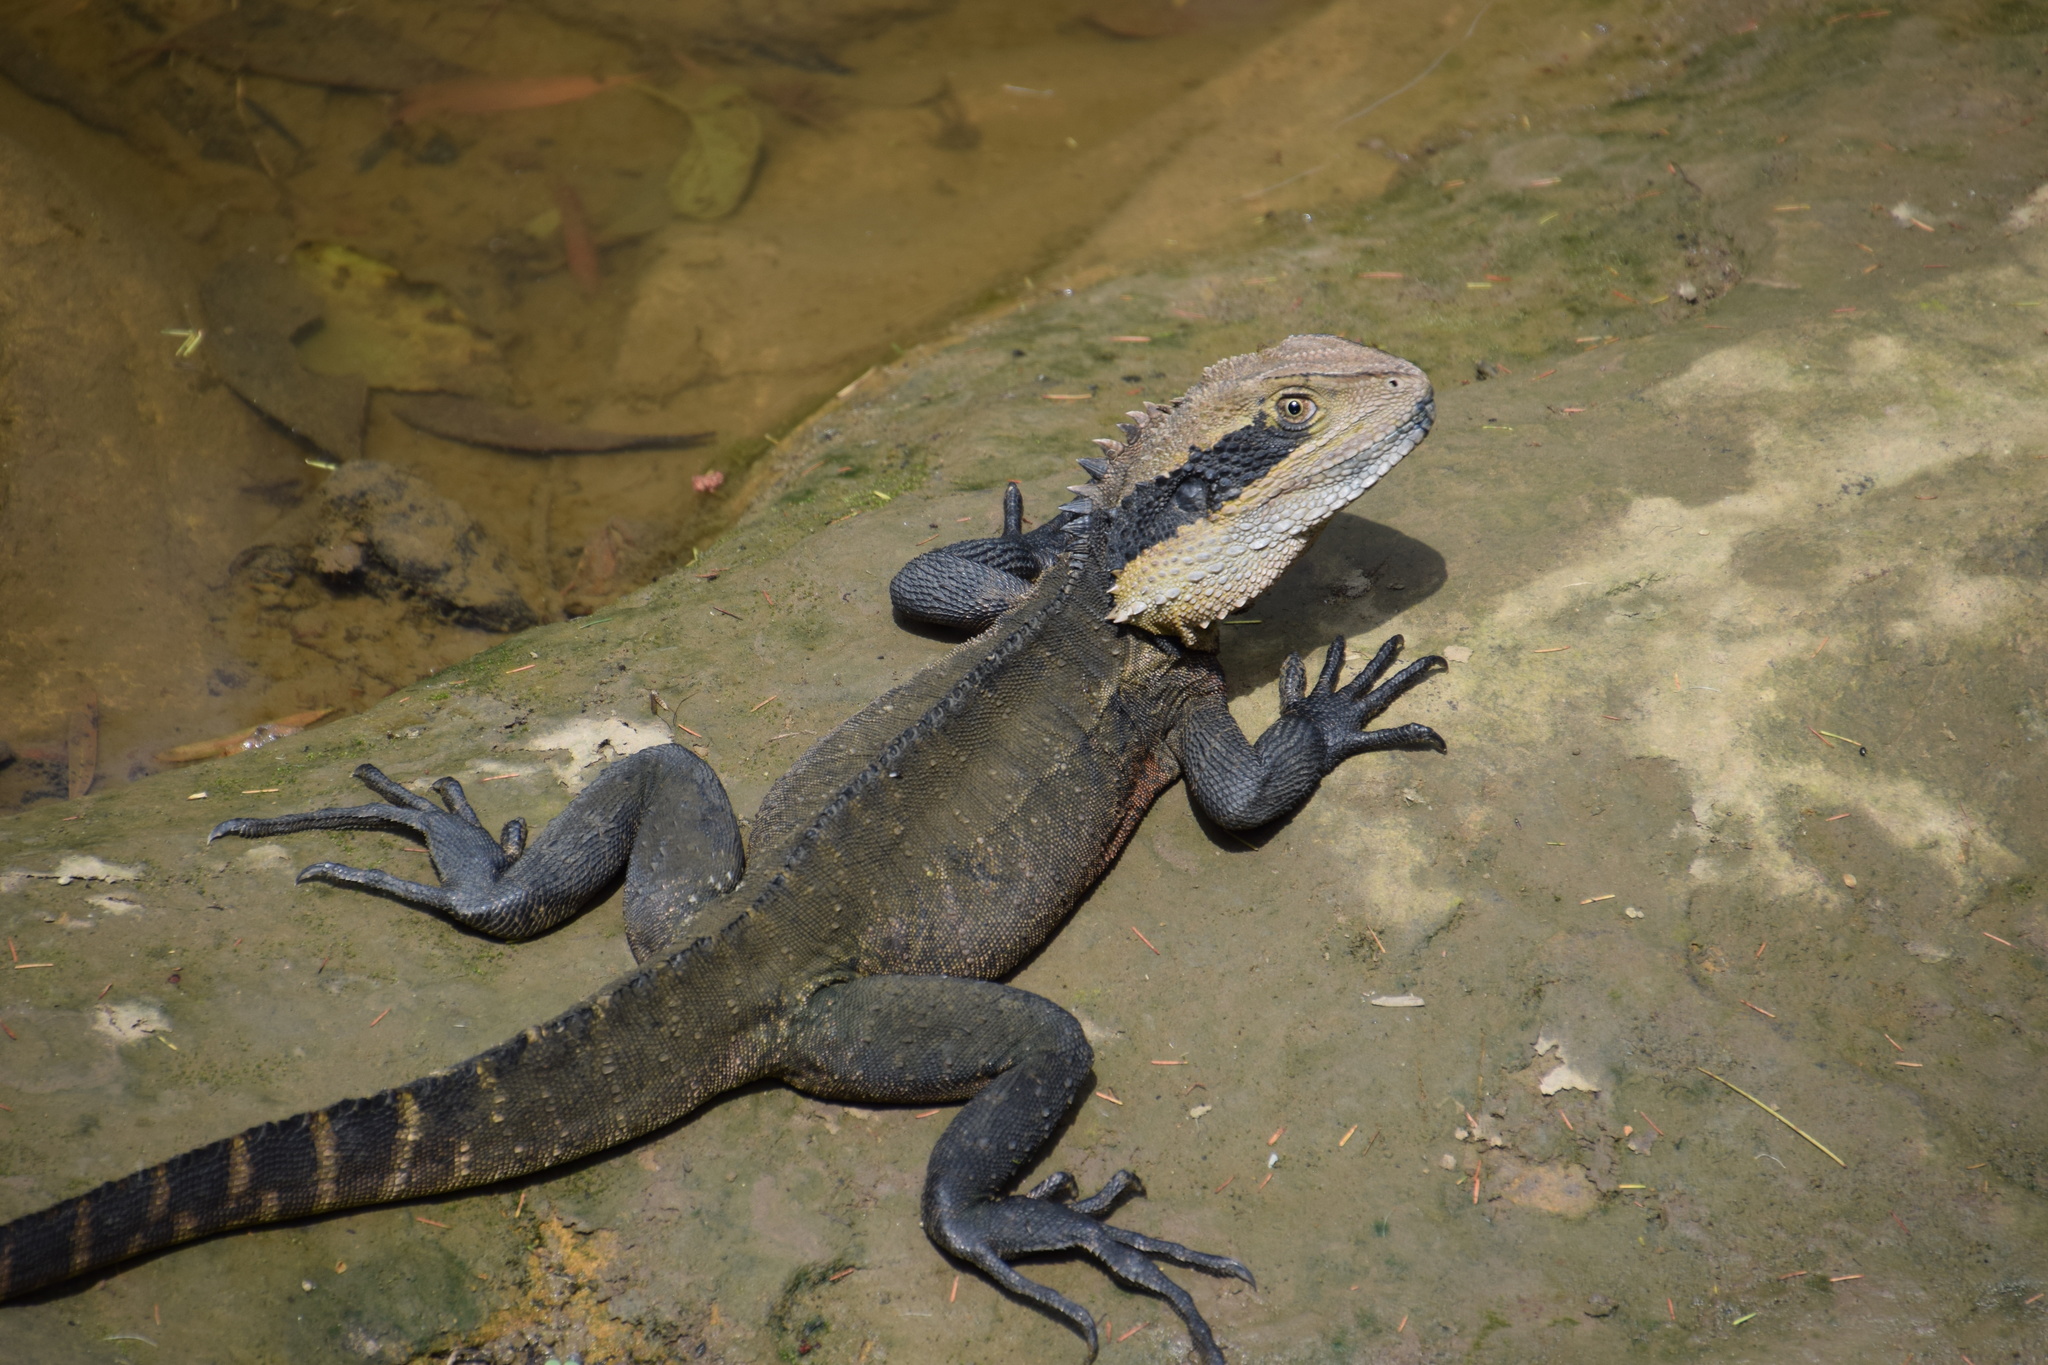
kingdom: Animalia
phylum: Chordata
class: Squamata
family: Agamidae
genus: Intellagama
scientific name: Intellagama lesueurii
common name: Eastern water dragon
